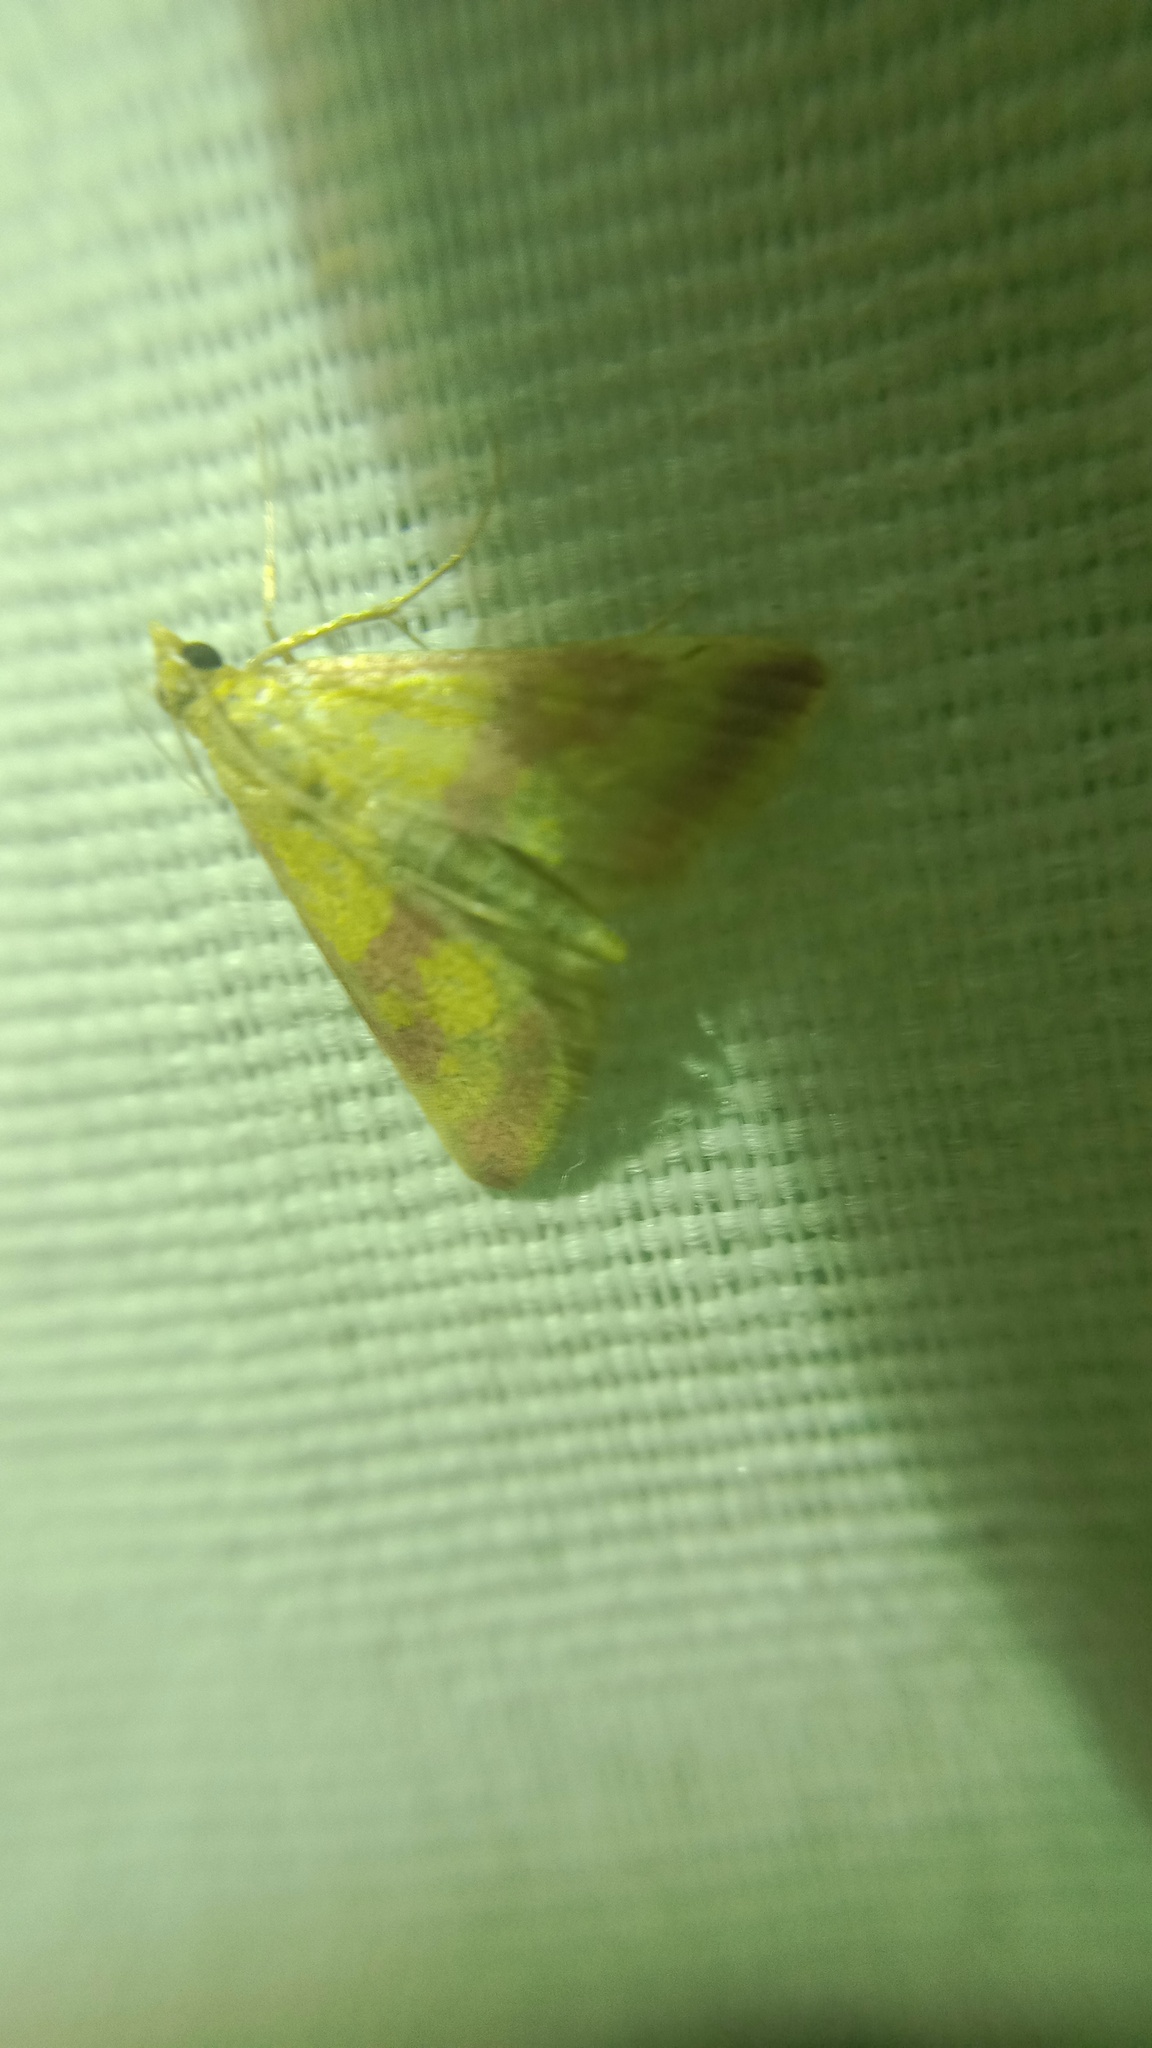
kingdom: Animalia
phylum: Arthropoda
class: Insecta
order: Lepidoptera
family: Crambidae
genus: Pyrausta
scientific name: Pyrausta sanguinalis
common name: Scarce crimson and gold
